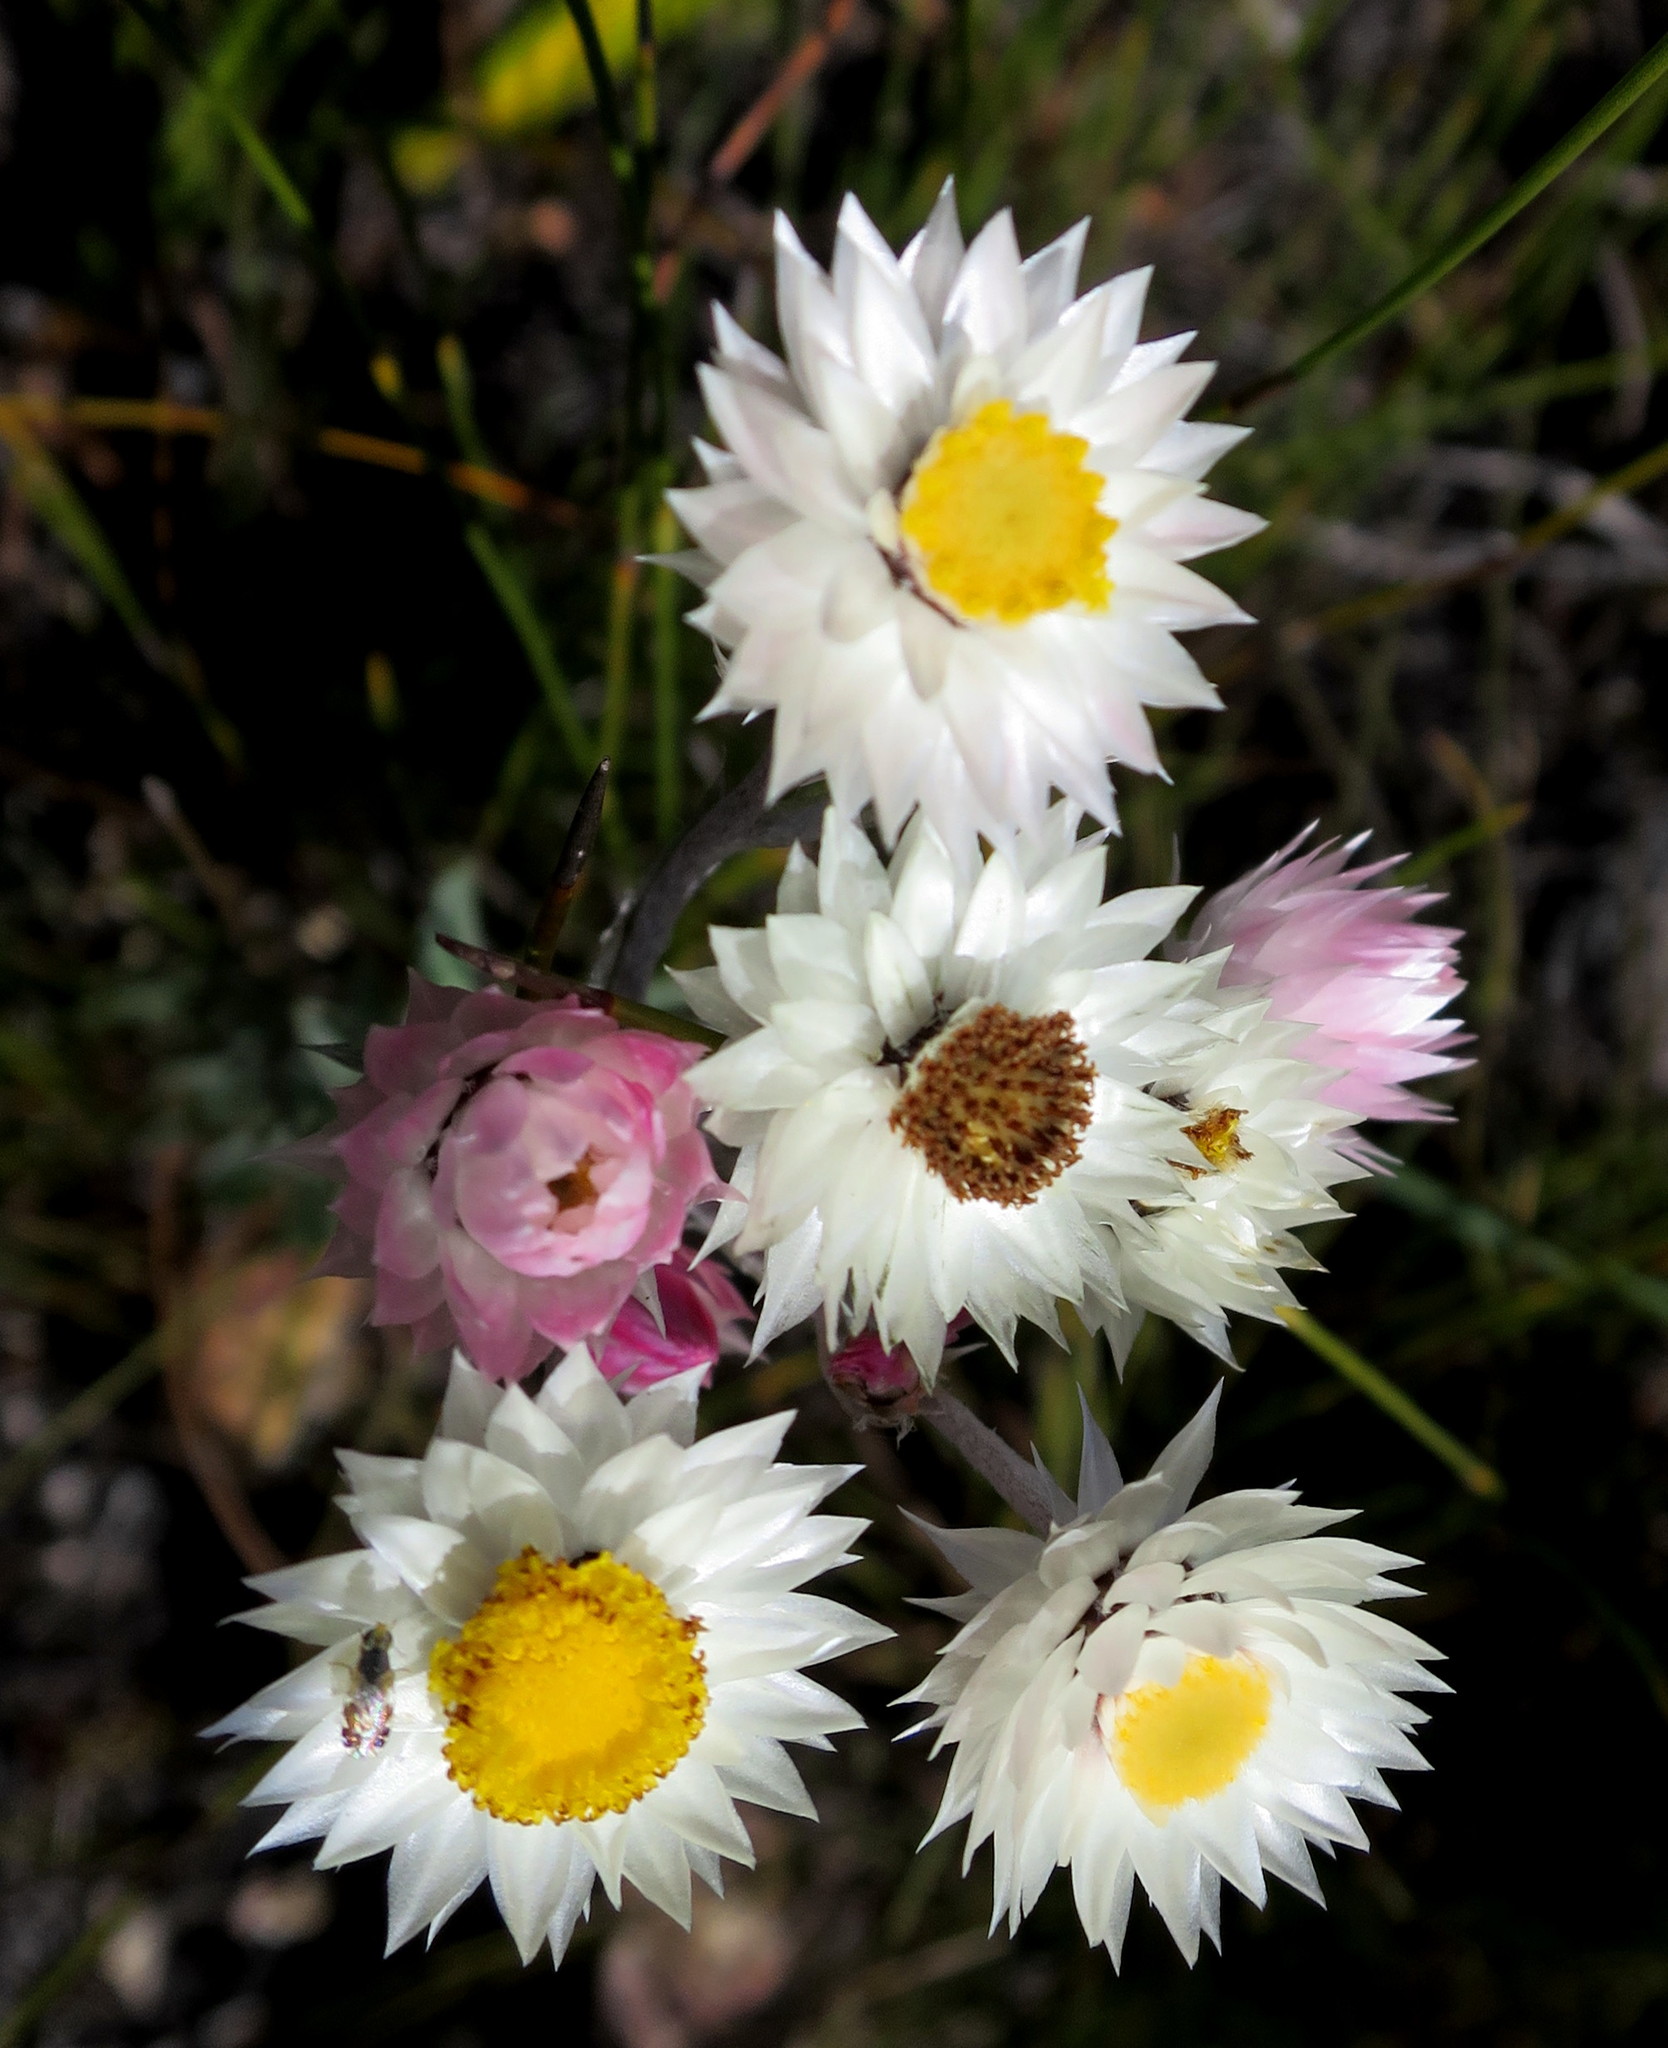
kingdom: Plantae
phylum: Tracheophyta
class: Magnoliopsida
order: Asterales
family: Asteraceae
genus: Achyranthemum
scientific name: Achyranthemum paniculatum
